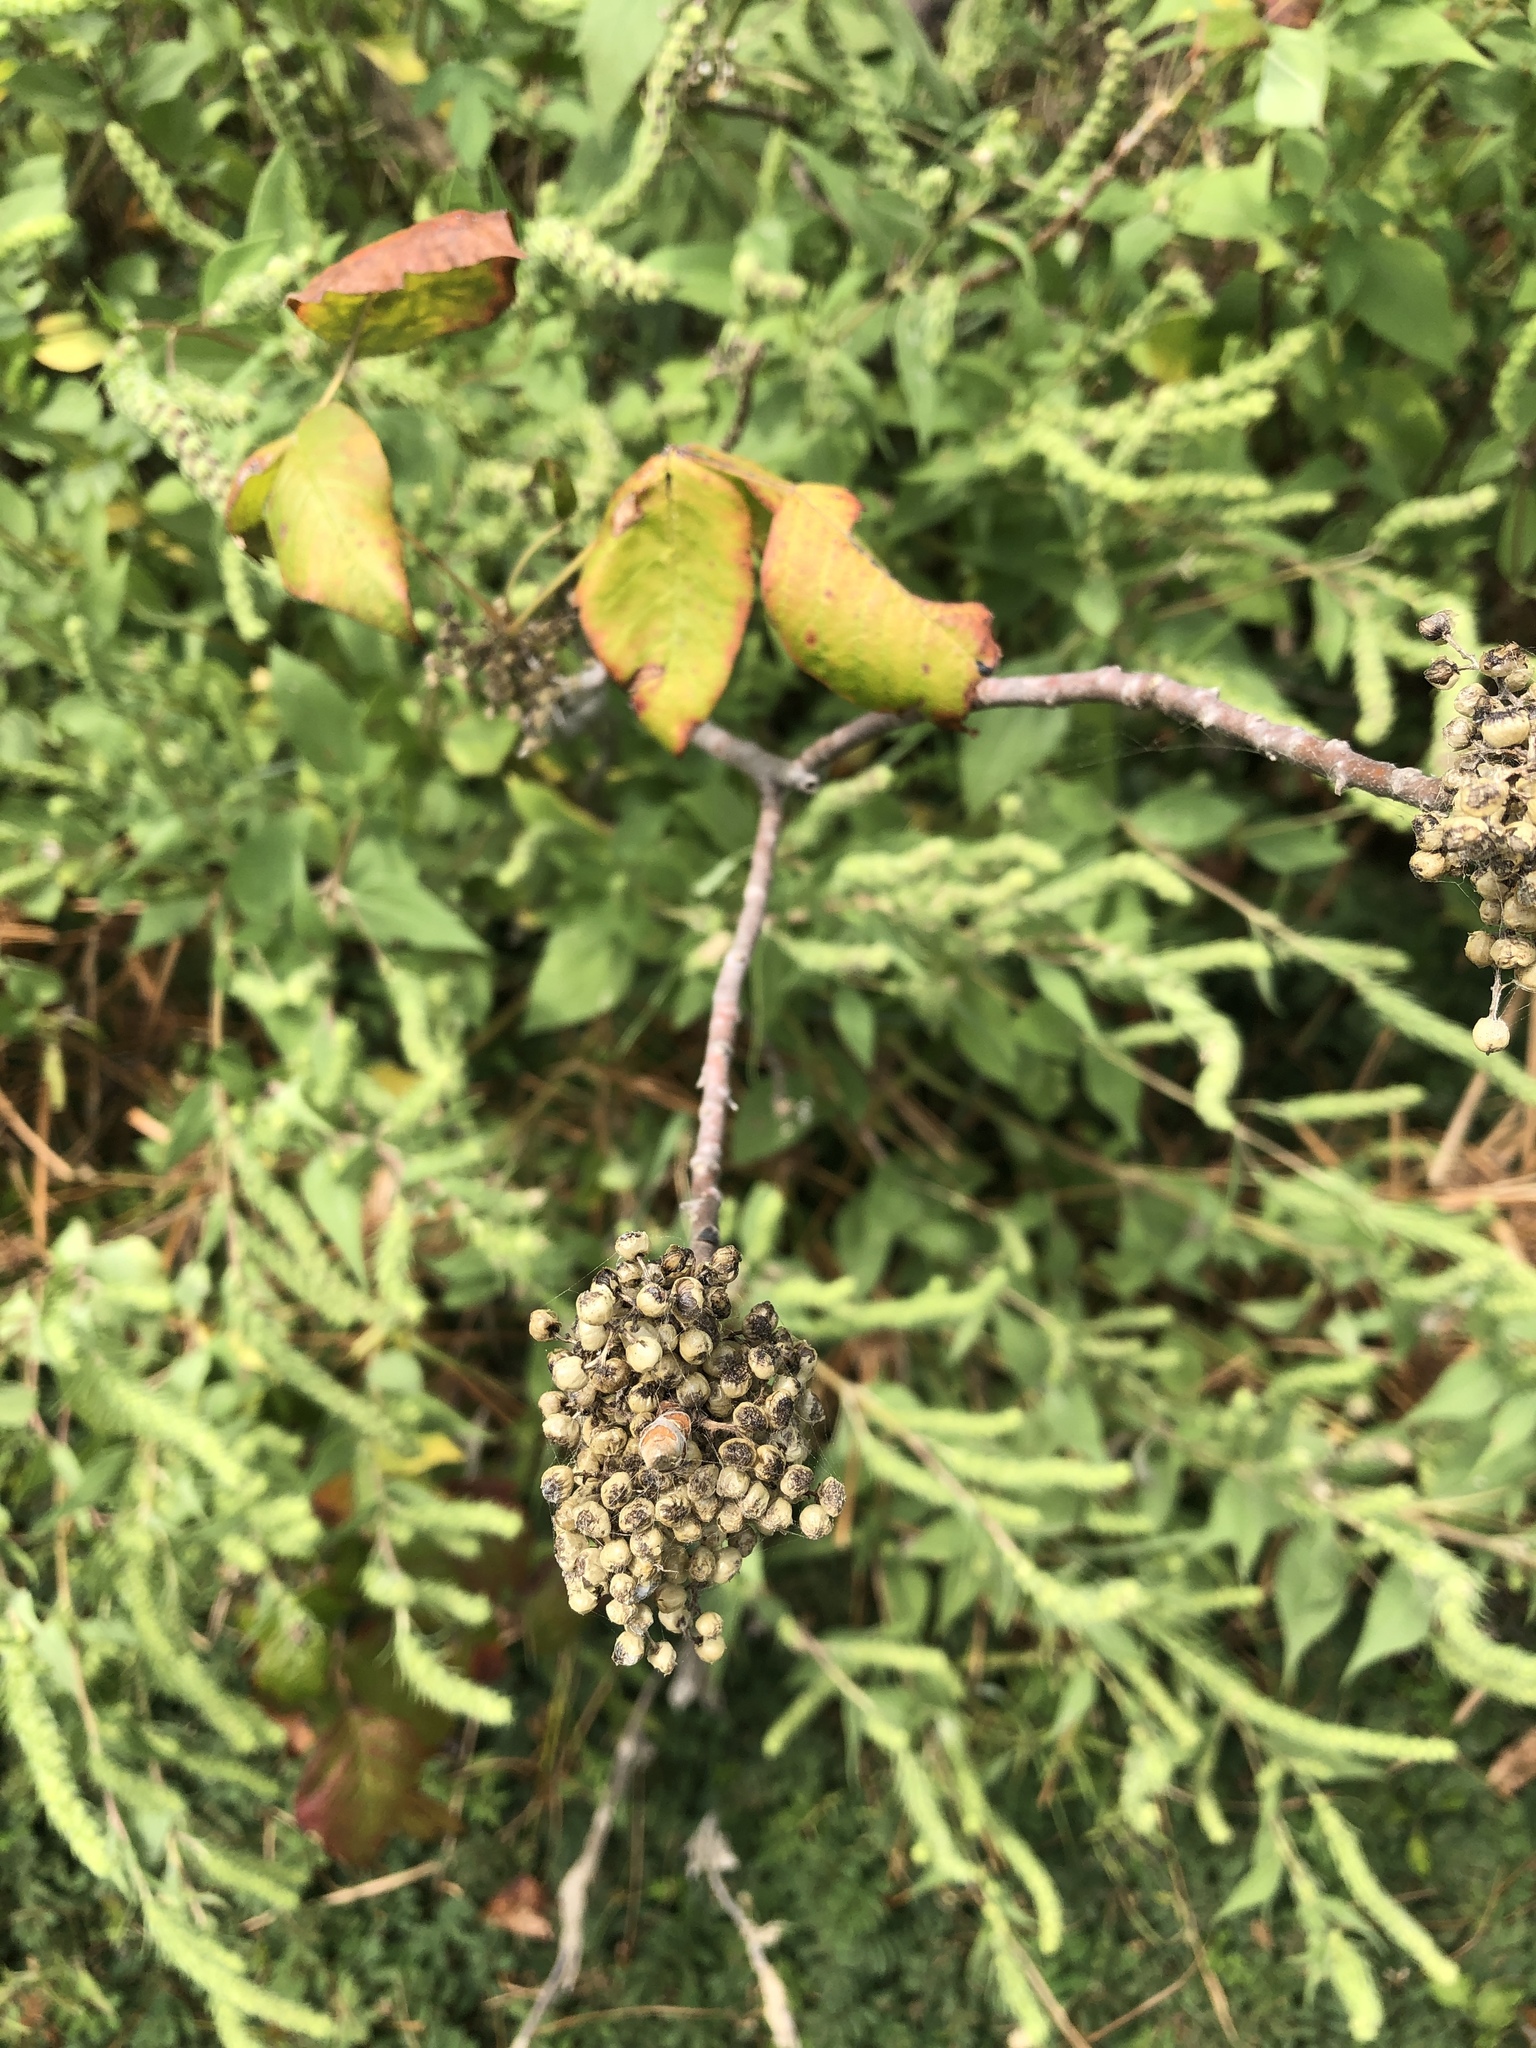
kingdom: Plantae
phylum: Tracheophyta
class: Magnoliopsida
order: Sapindales
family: Anacardiaceae
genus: Toxicodendron
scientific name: Toxicodendron radicans
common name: Poison ivy
